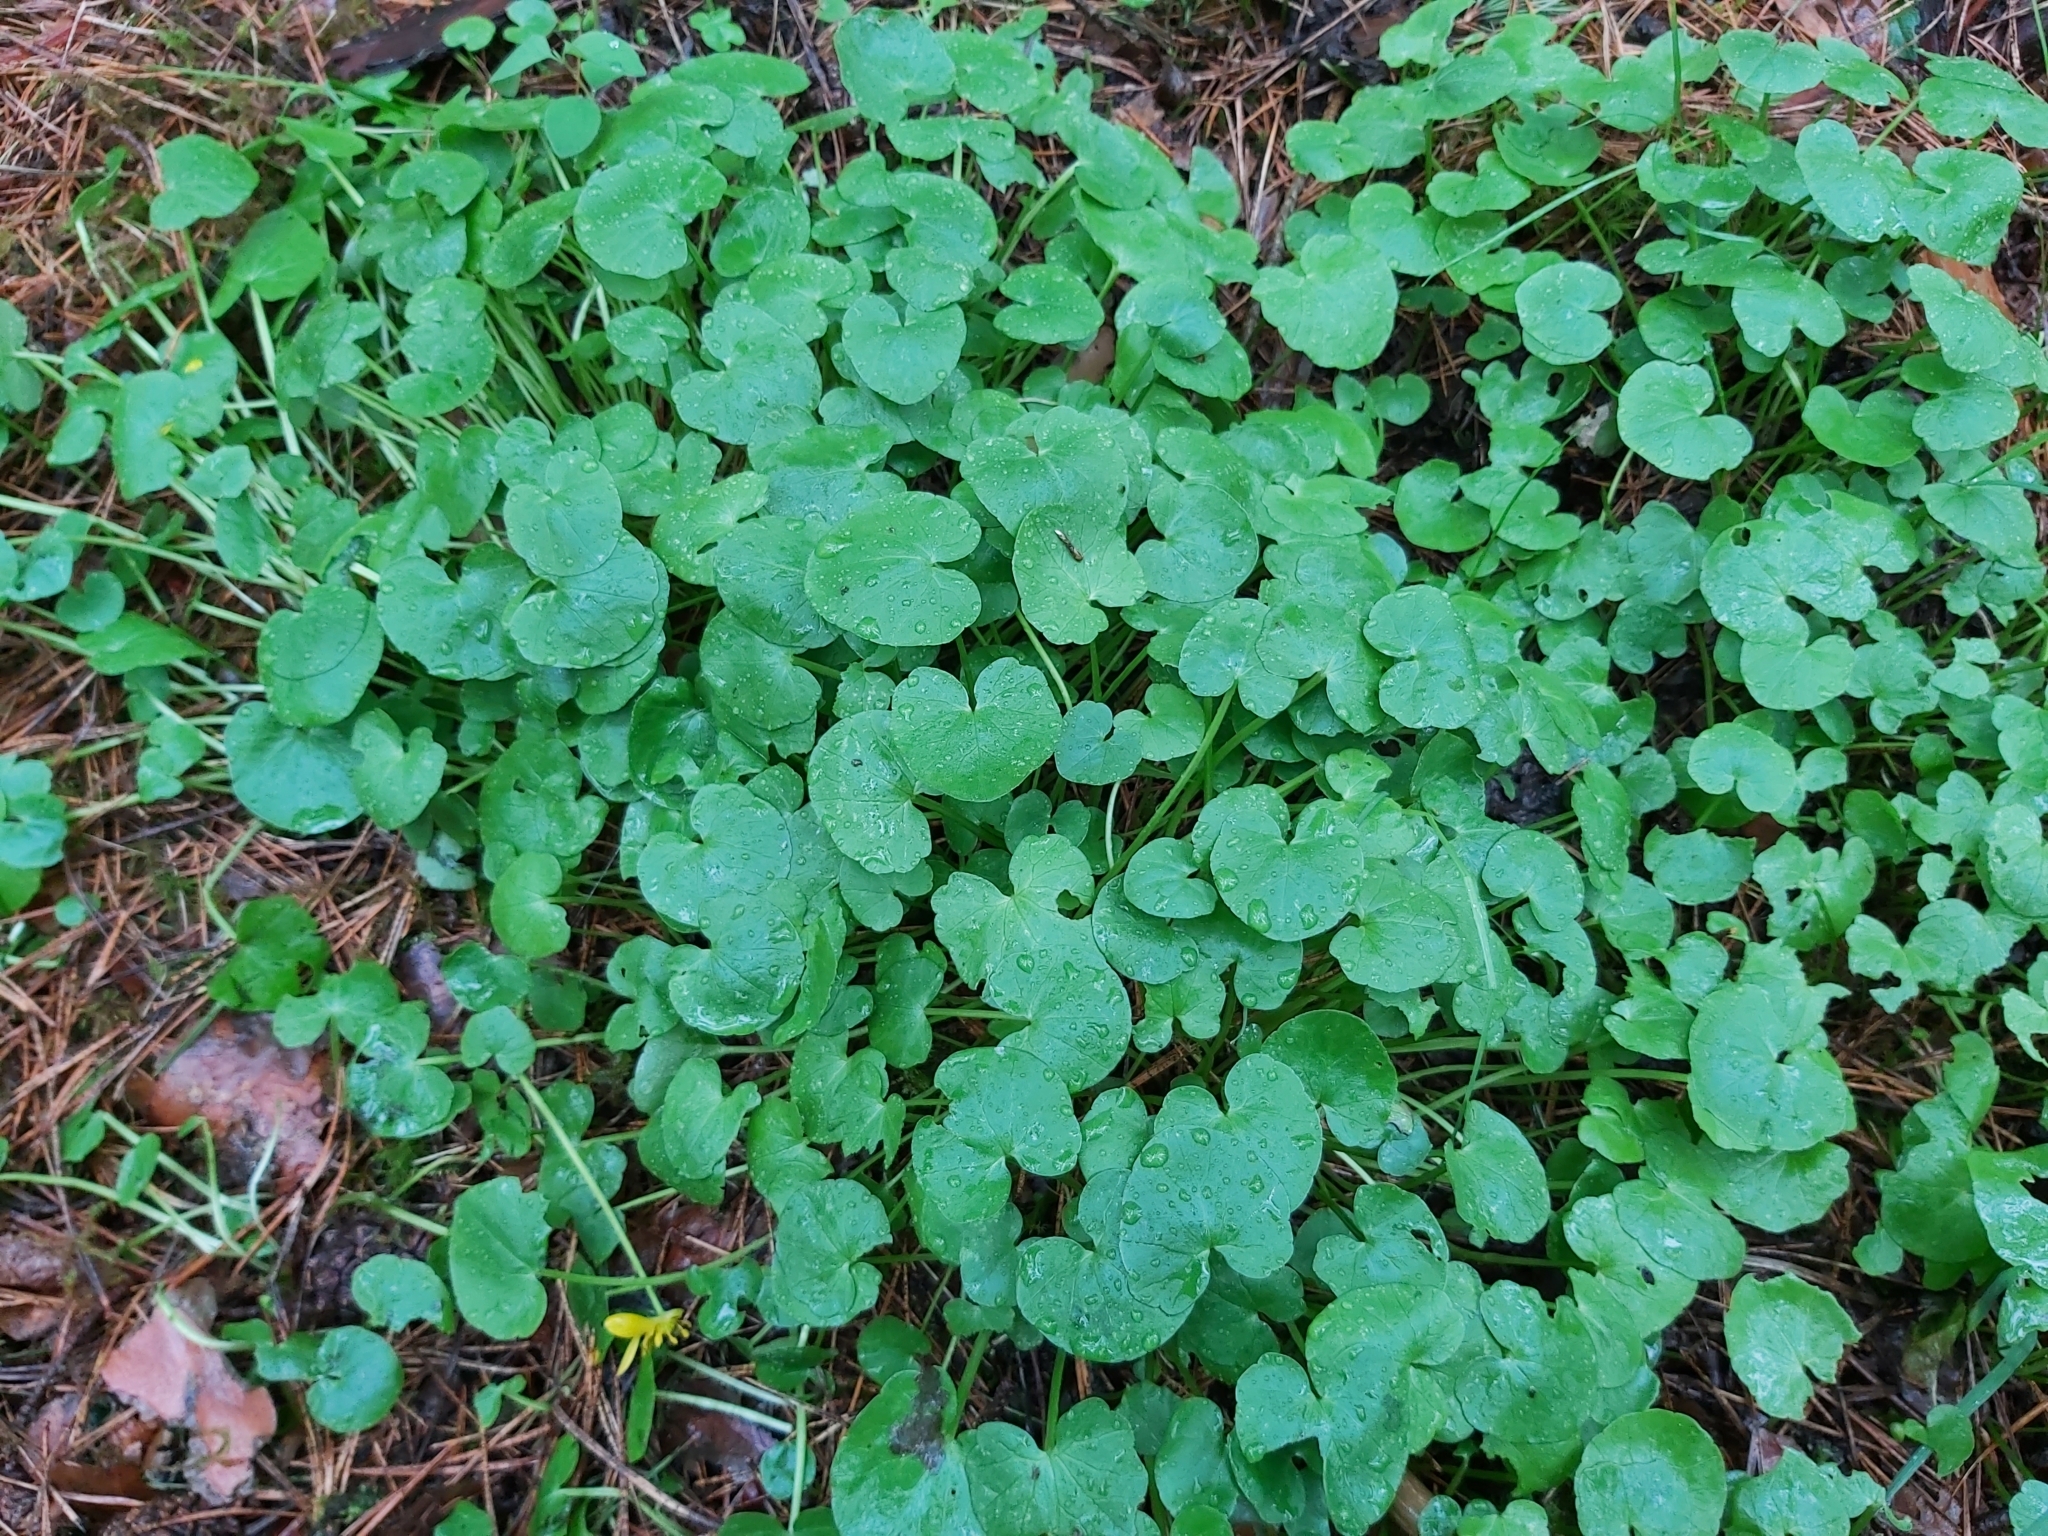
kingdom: Plantae
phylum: Tracheophyta
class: Magnoliopsida
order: Ranunculales
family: Ranunculaceae
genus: Ficaria
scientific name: Ficaria verna
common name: Lesser celandine
